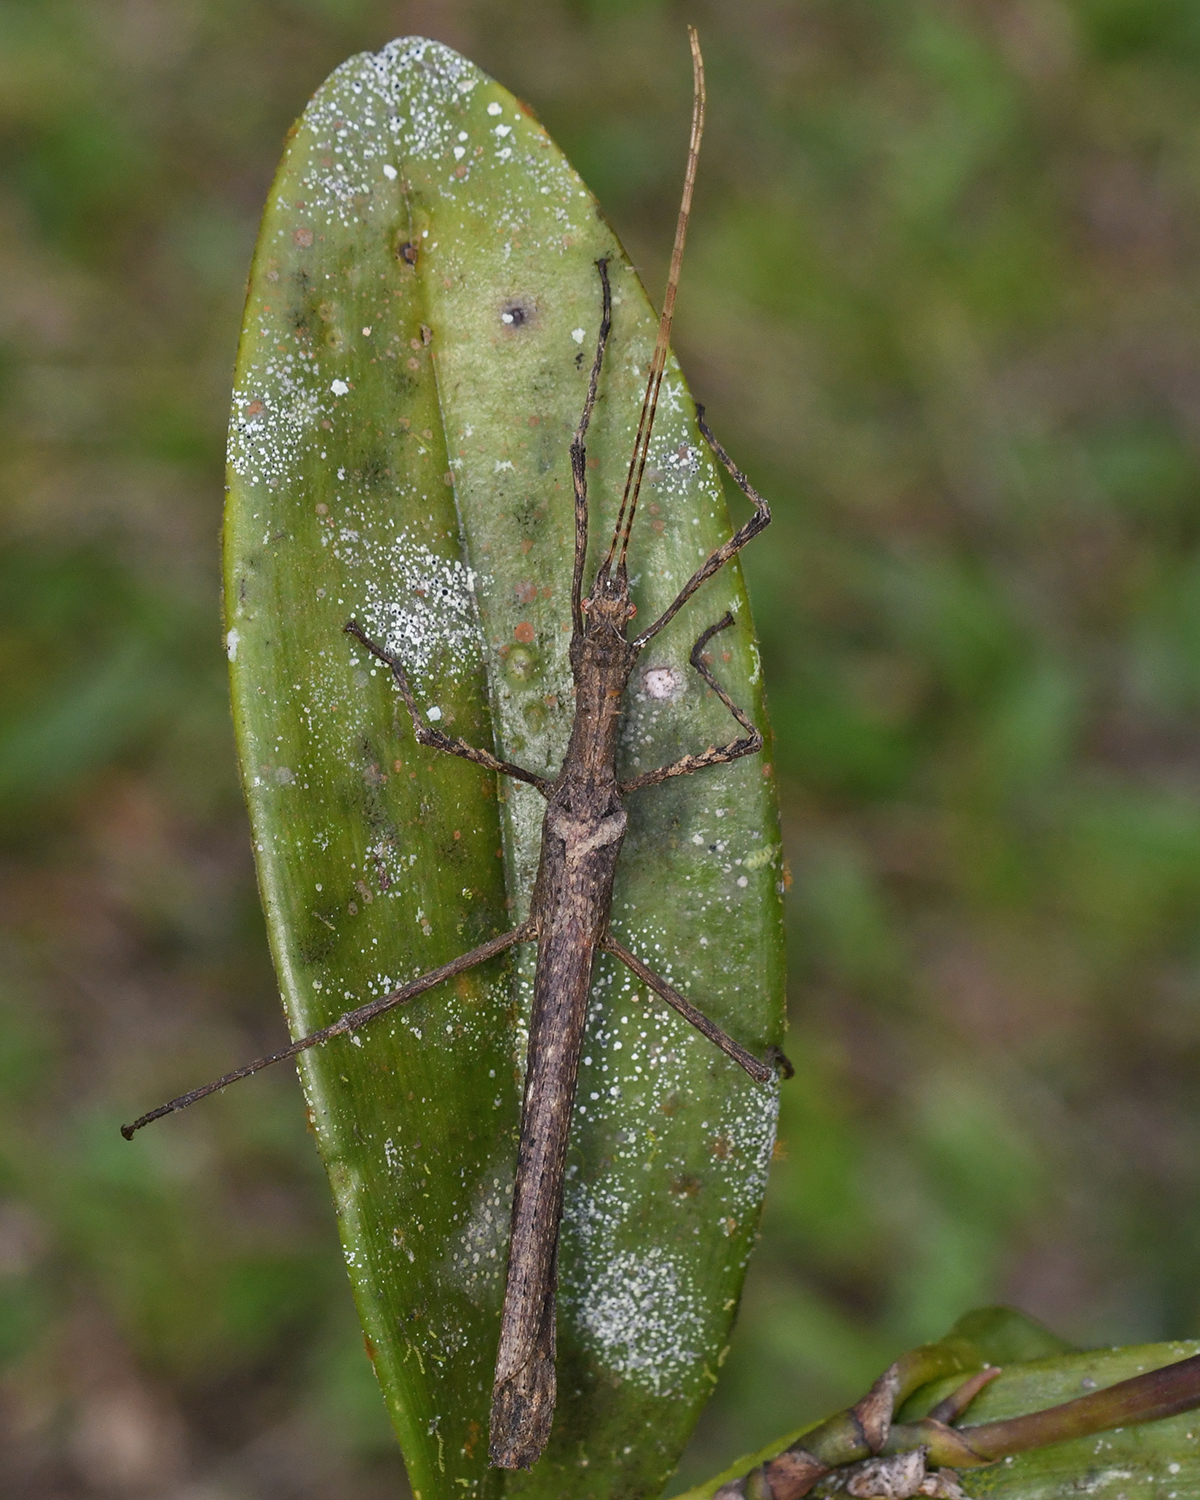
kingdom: Animalia
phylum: Arthropoda
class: Insecta
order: Phasmida
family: Pseudophasmatidae
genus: Creoxylus
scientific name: Creoxylus spinosus
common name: Trinidad log stick insect
